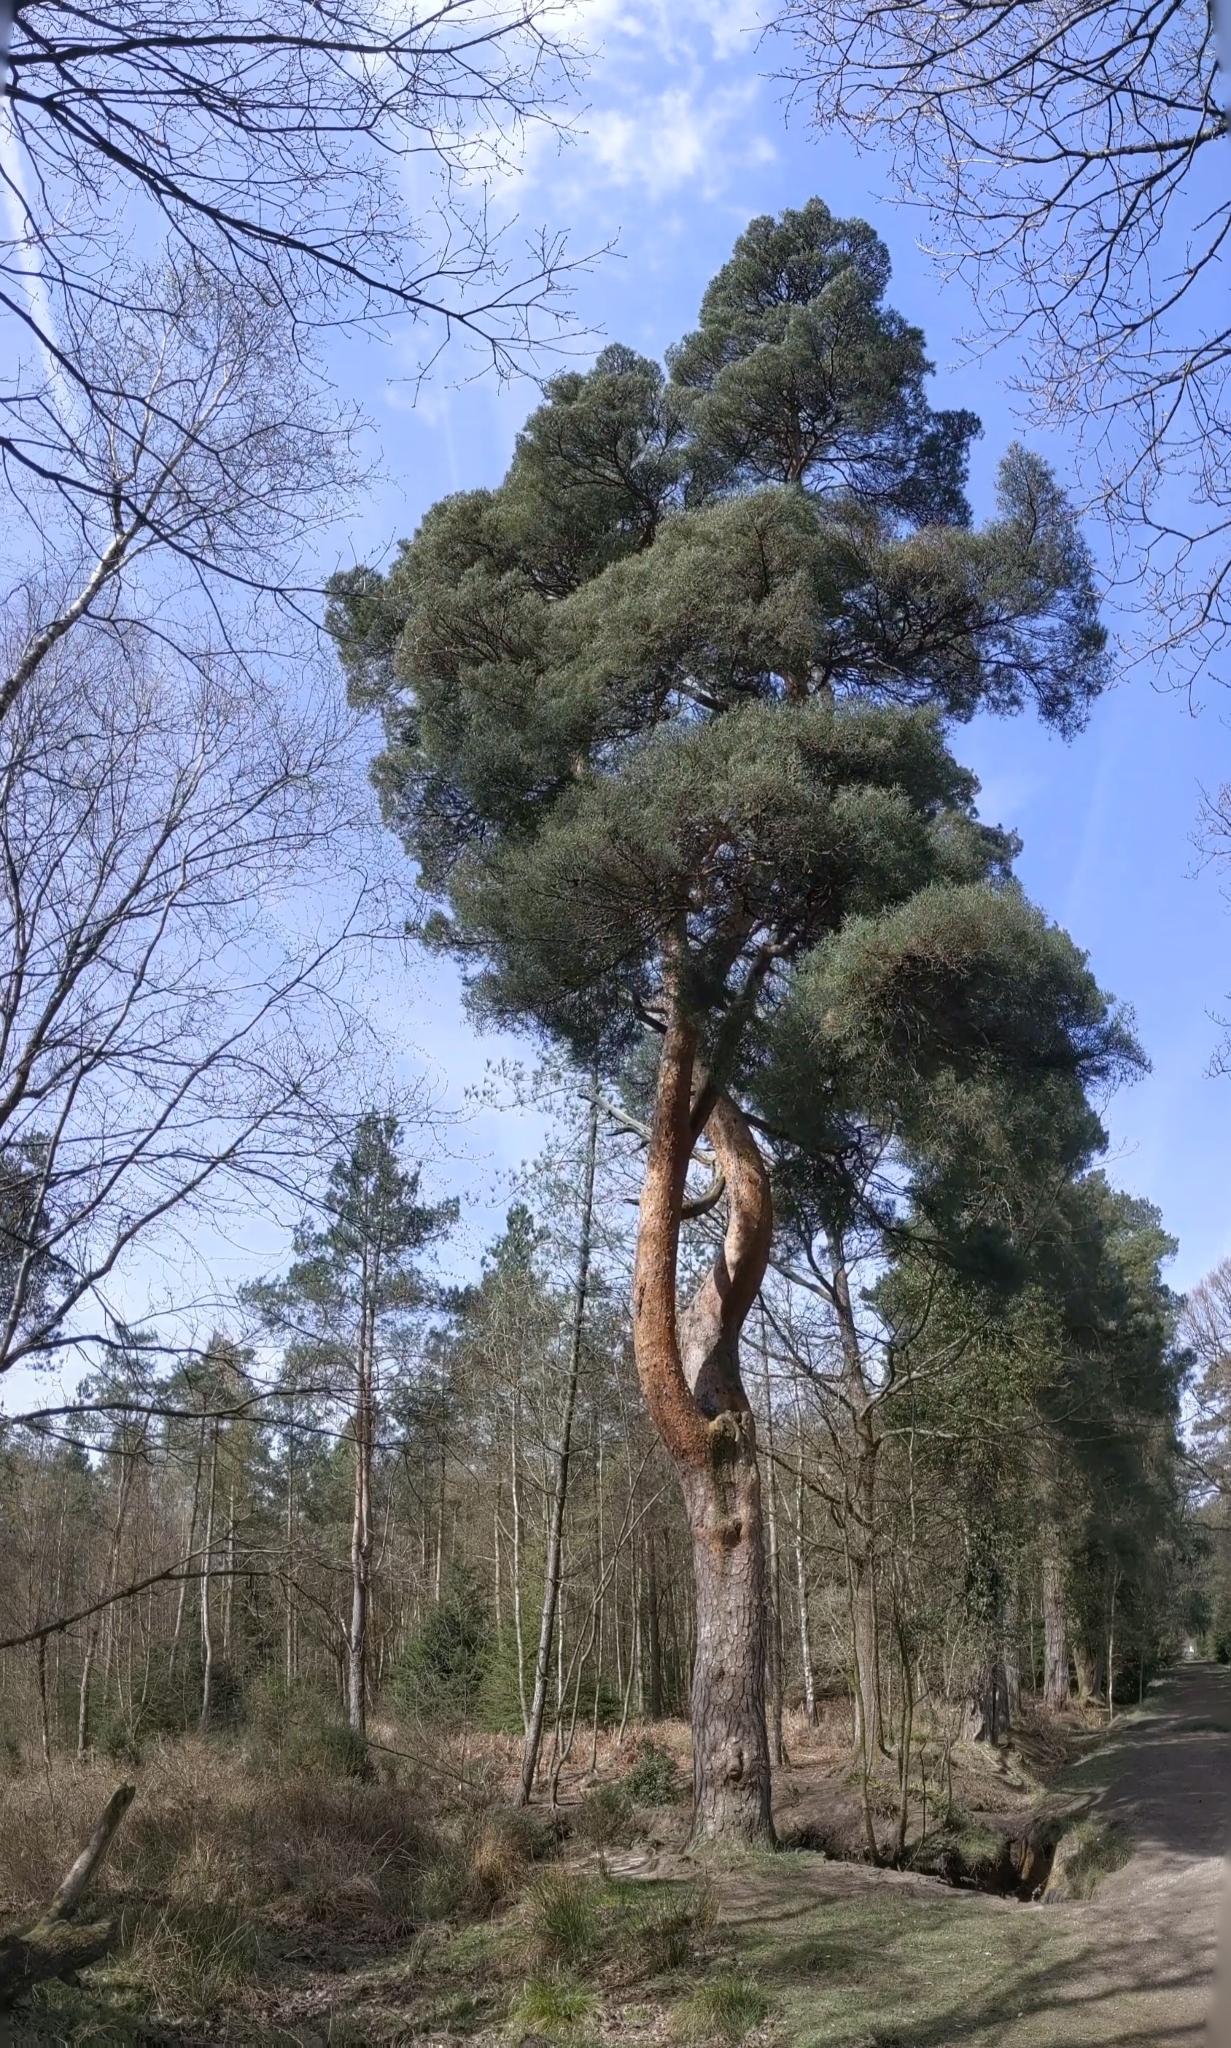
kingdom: Plantae
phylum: Tracheophyta
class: Pinopsida
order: Pinales
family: Pinaceae
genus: Pinus
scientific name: Pinus sylvestris
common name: Scots pine
